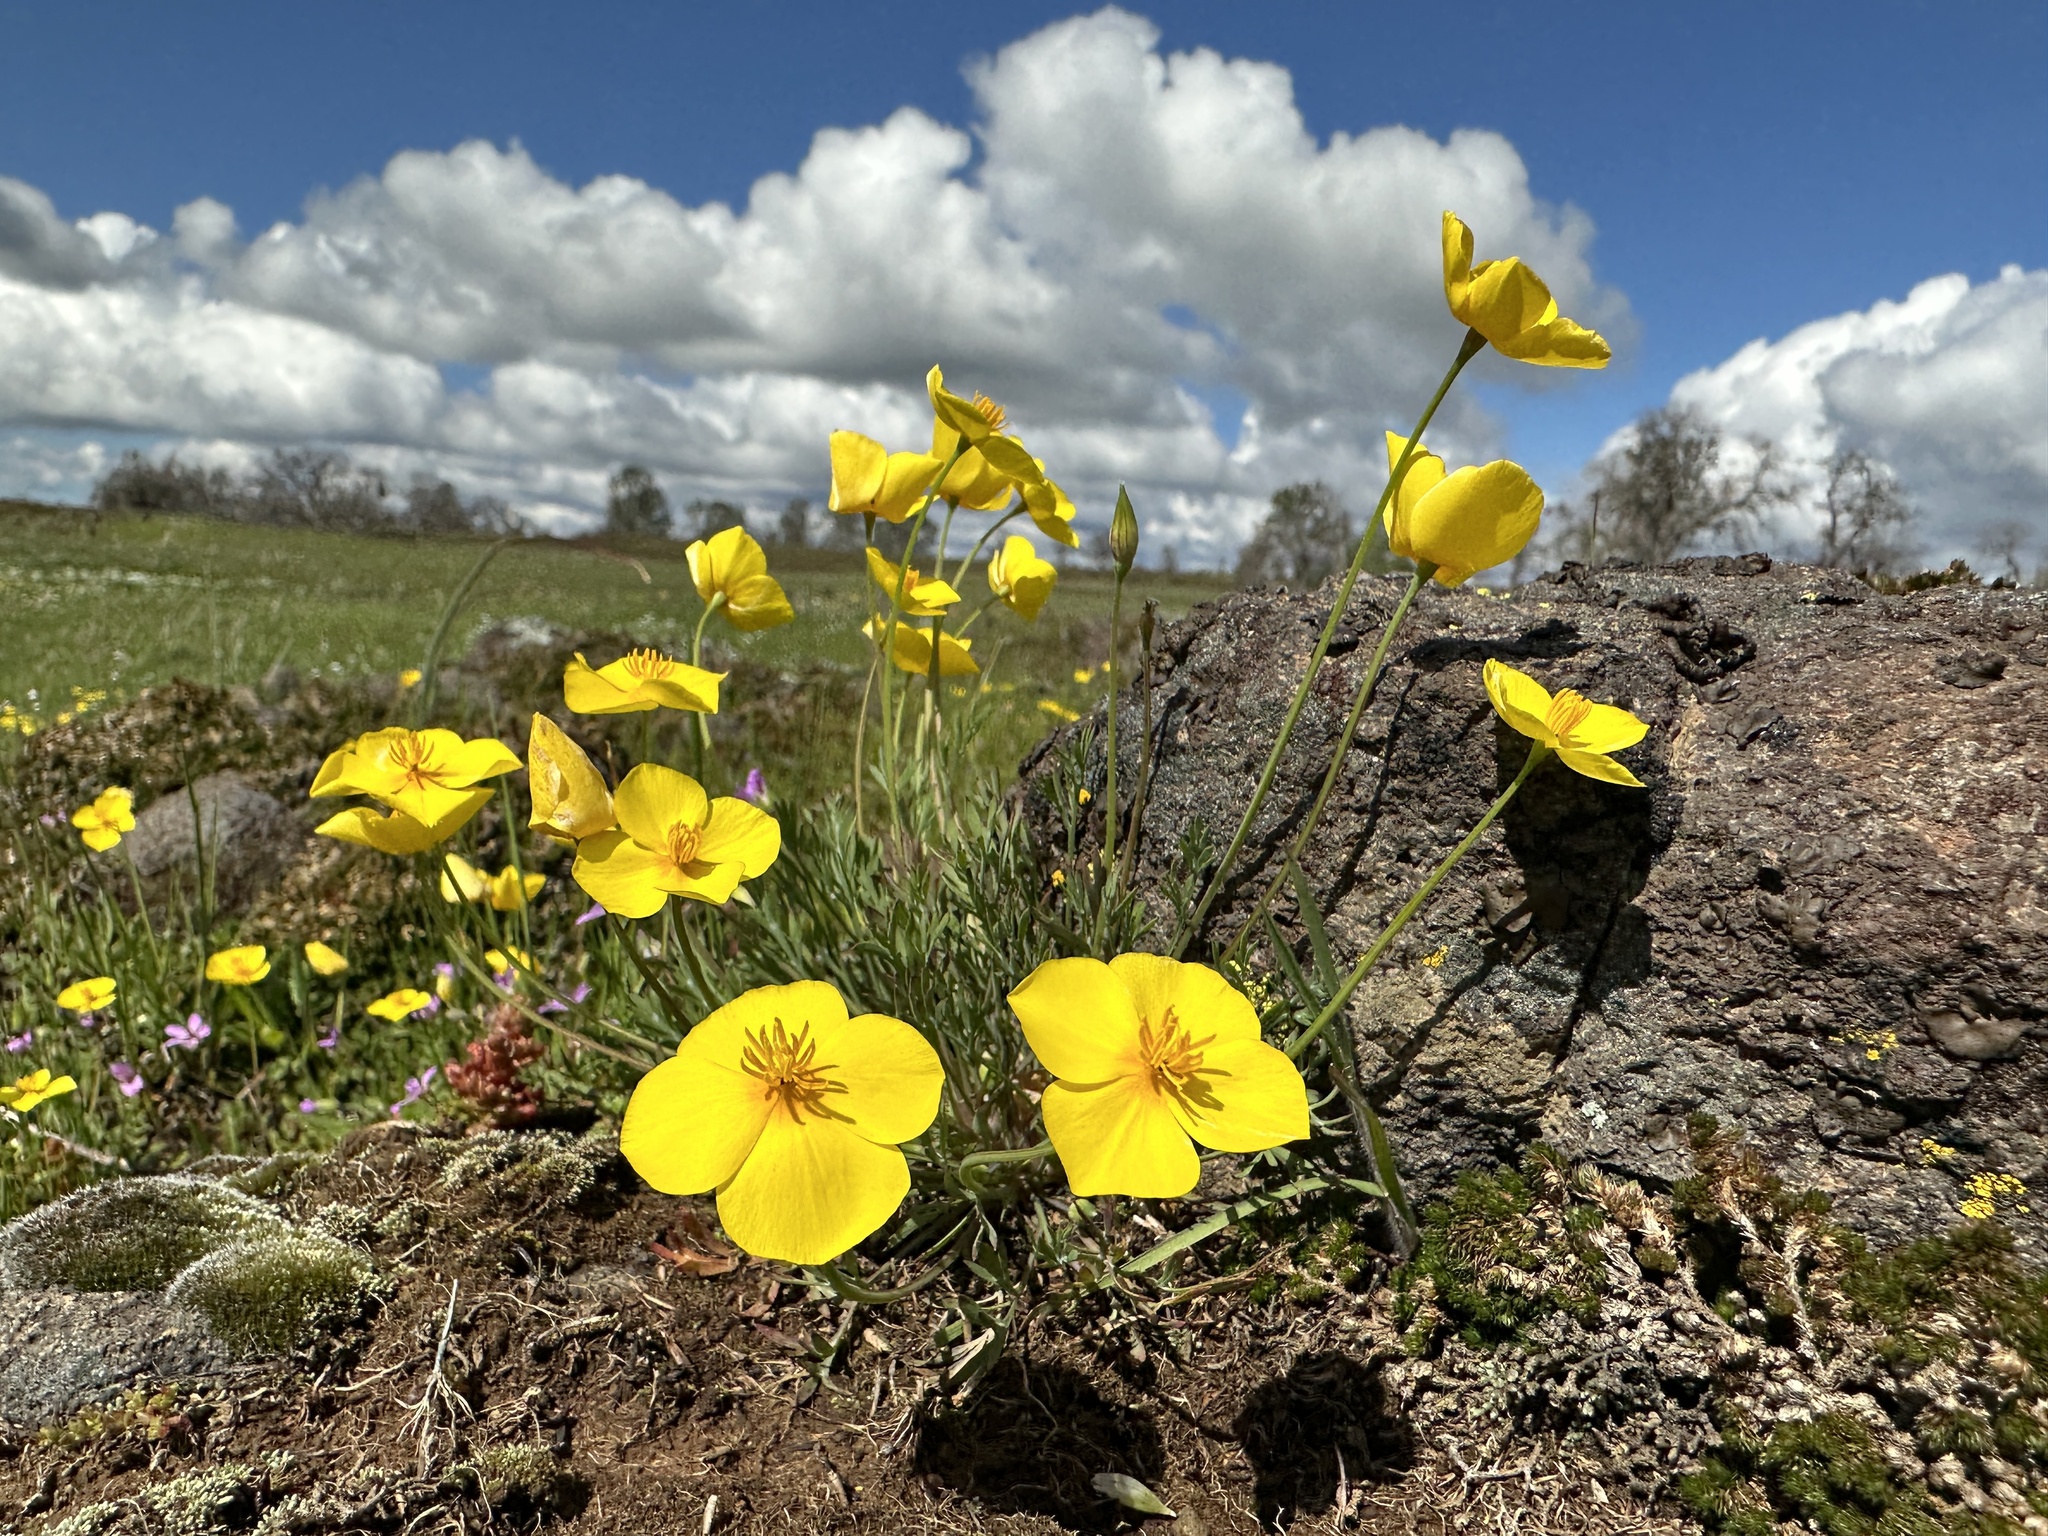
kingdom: Plantae
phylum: Tracheophyta
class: Magnoliopsida
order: Ranunculales
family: Papaveraceae
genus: Eschscholzia
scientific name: Eschscholzia lobbii
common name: Frying-pans
